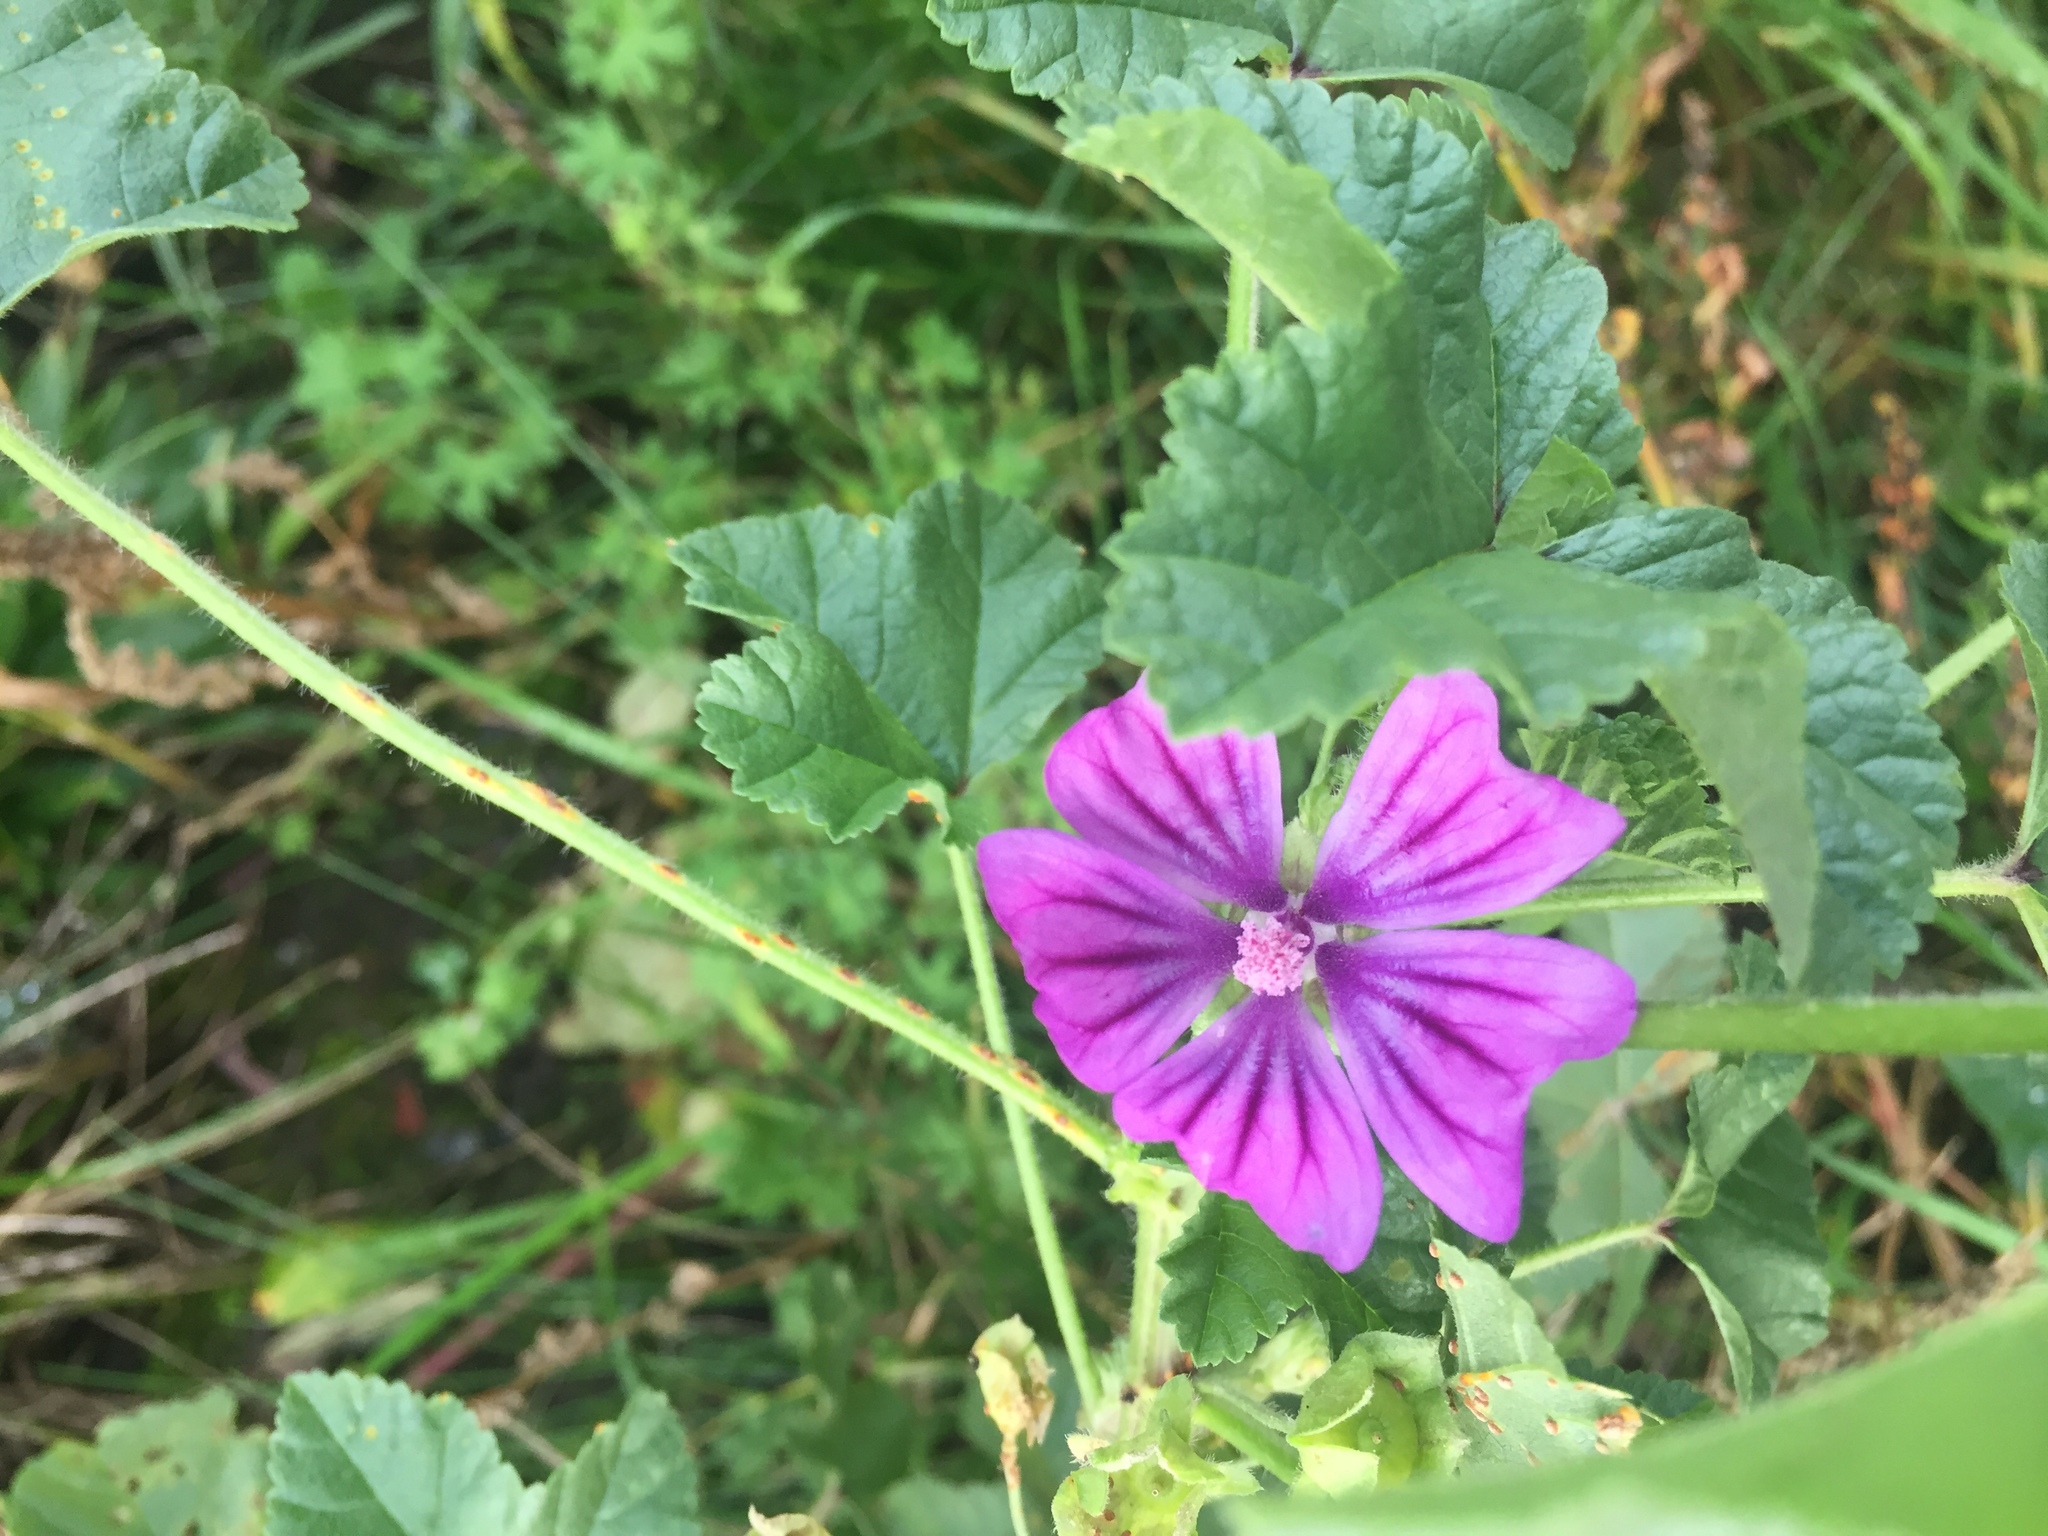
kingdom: Plantae
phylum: Tracheophyta
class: Magnoliopsida
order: Malvales
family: Malvaceae
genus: Malva
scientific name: Malva sylvestris
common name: Common mallow
